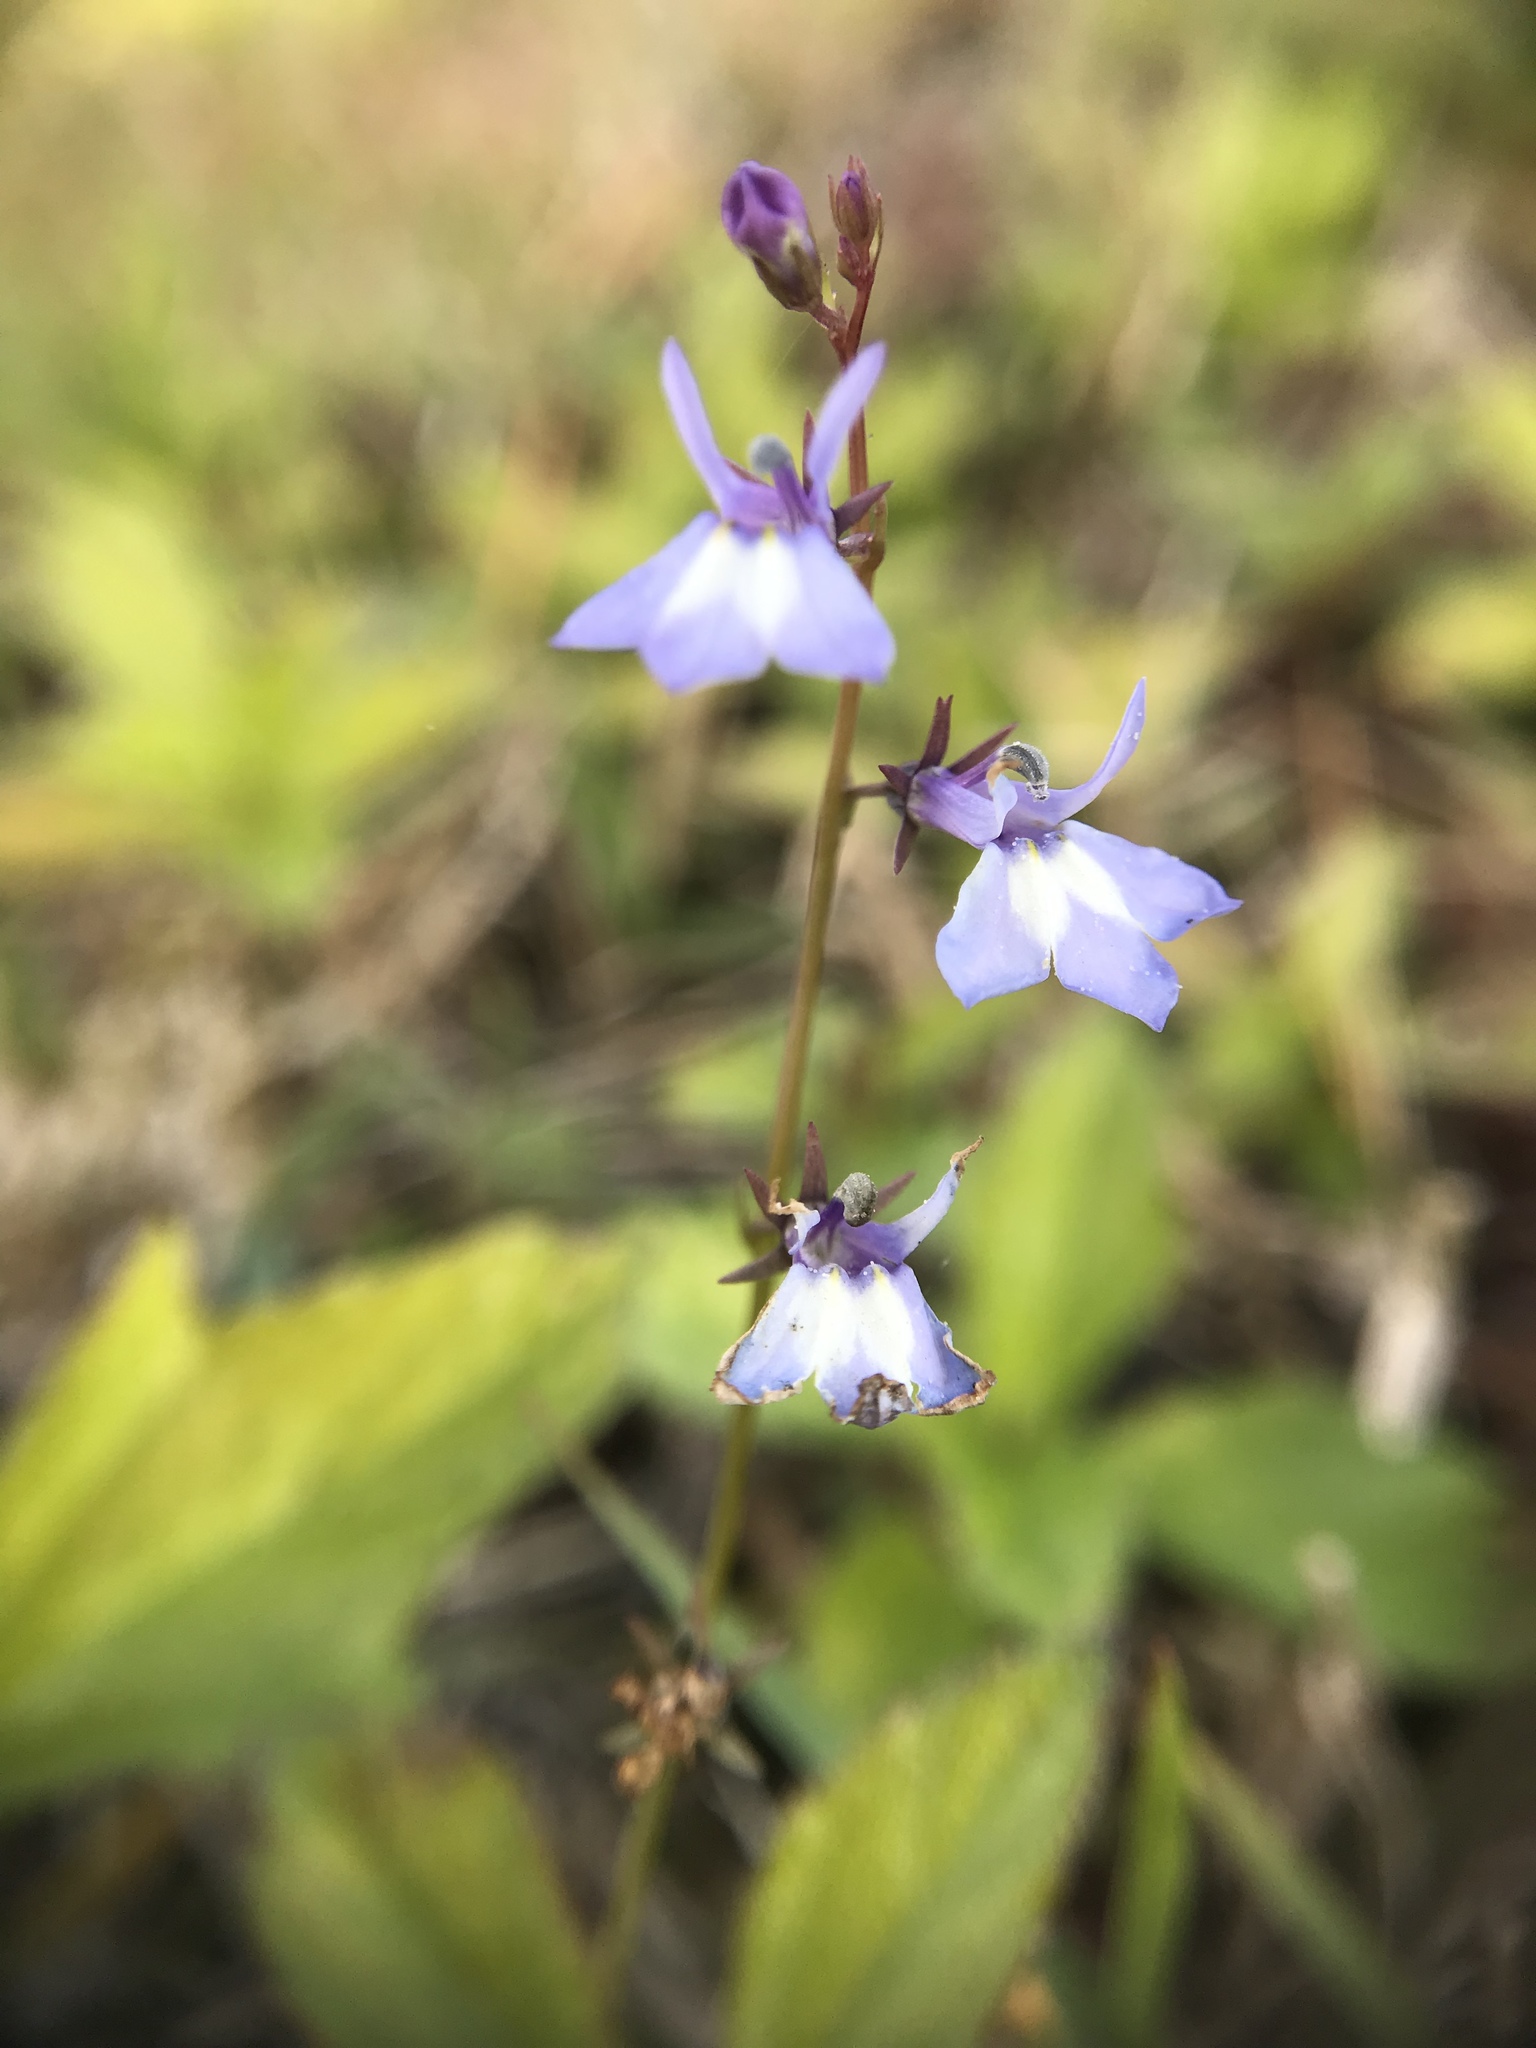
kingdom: Plantae
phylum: Tracheophyta
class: Magnoliopsida
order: Asterales
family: Campanulaceae
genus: Lobelia
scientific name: Lobelia feayana
